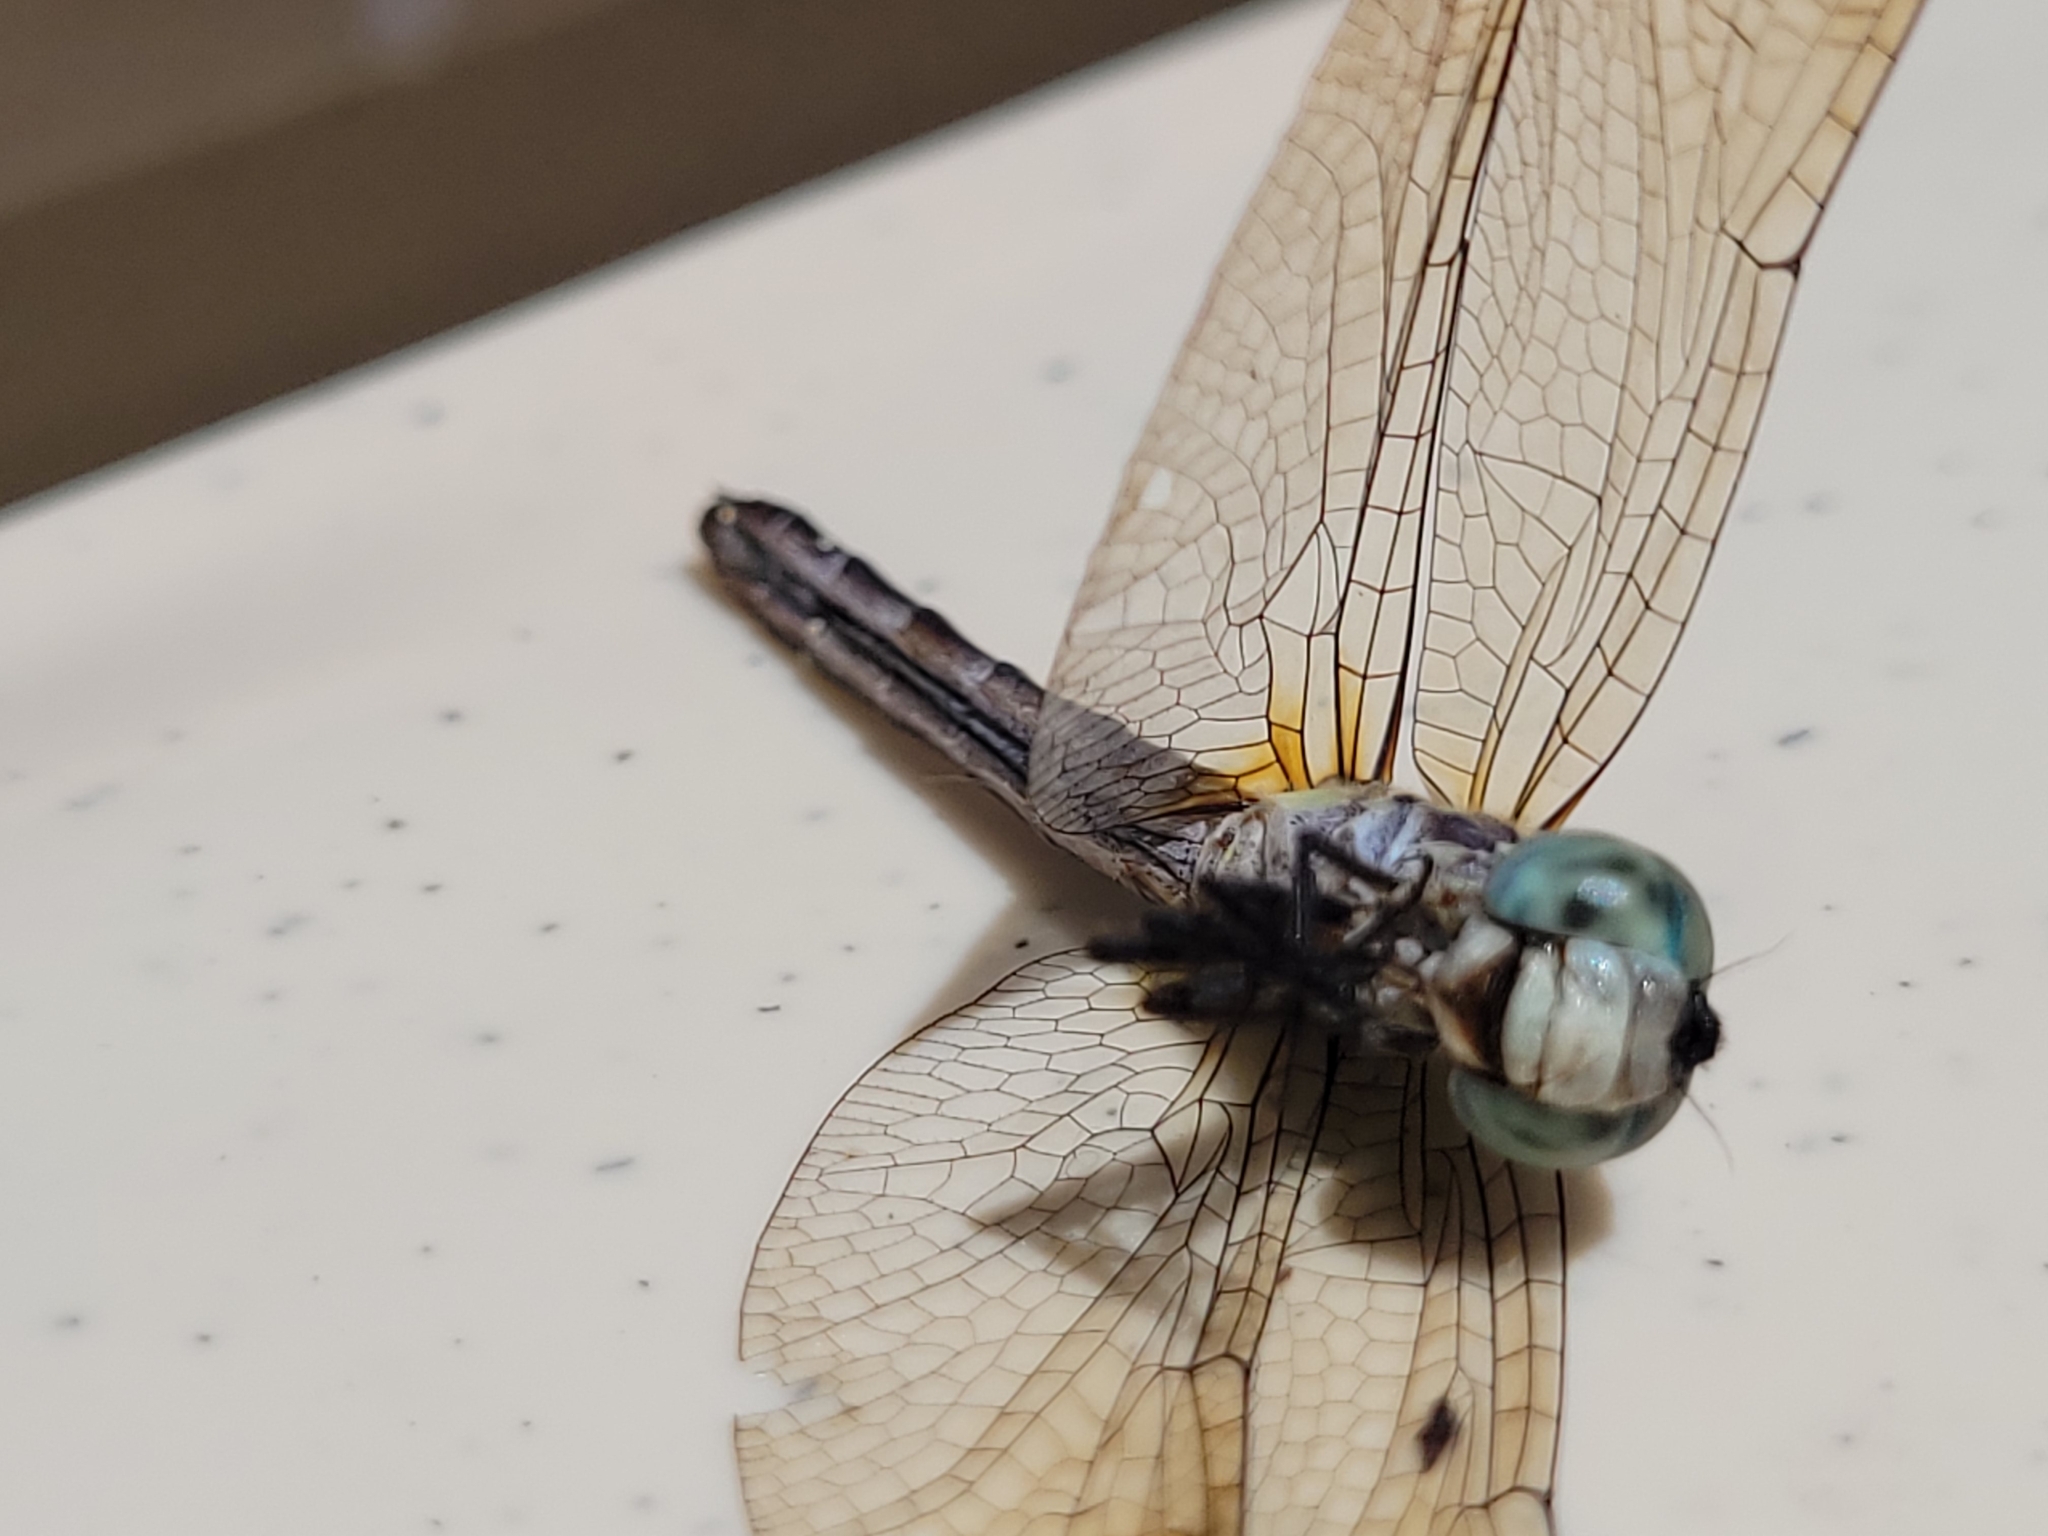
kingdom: Animalia
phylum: Arthropoda
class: Insecta
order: Odonata
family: Libellulidae
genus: Pachydiplax
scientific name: Pachydiplax longipennis
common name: Blue dasher
